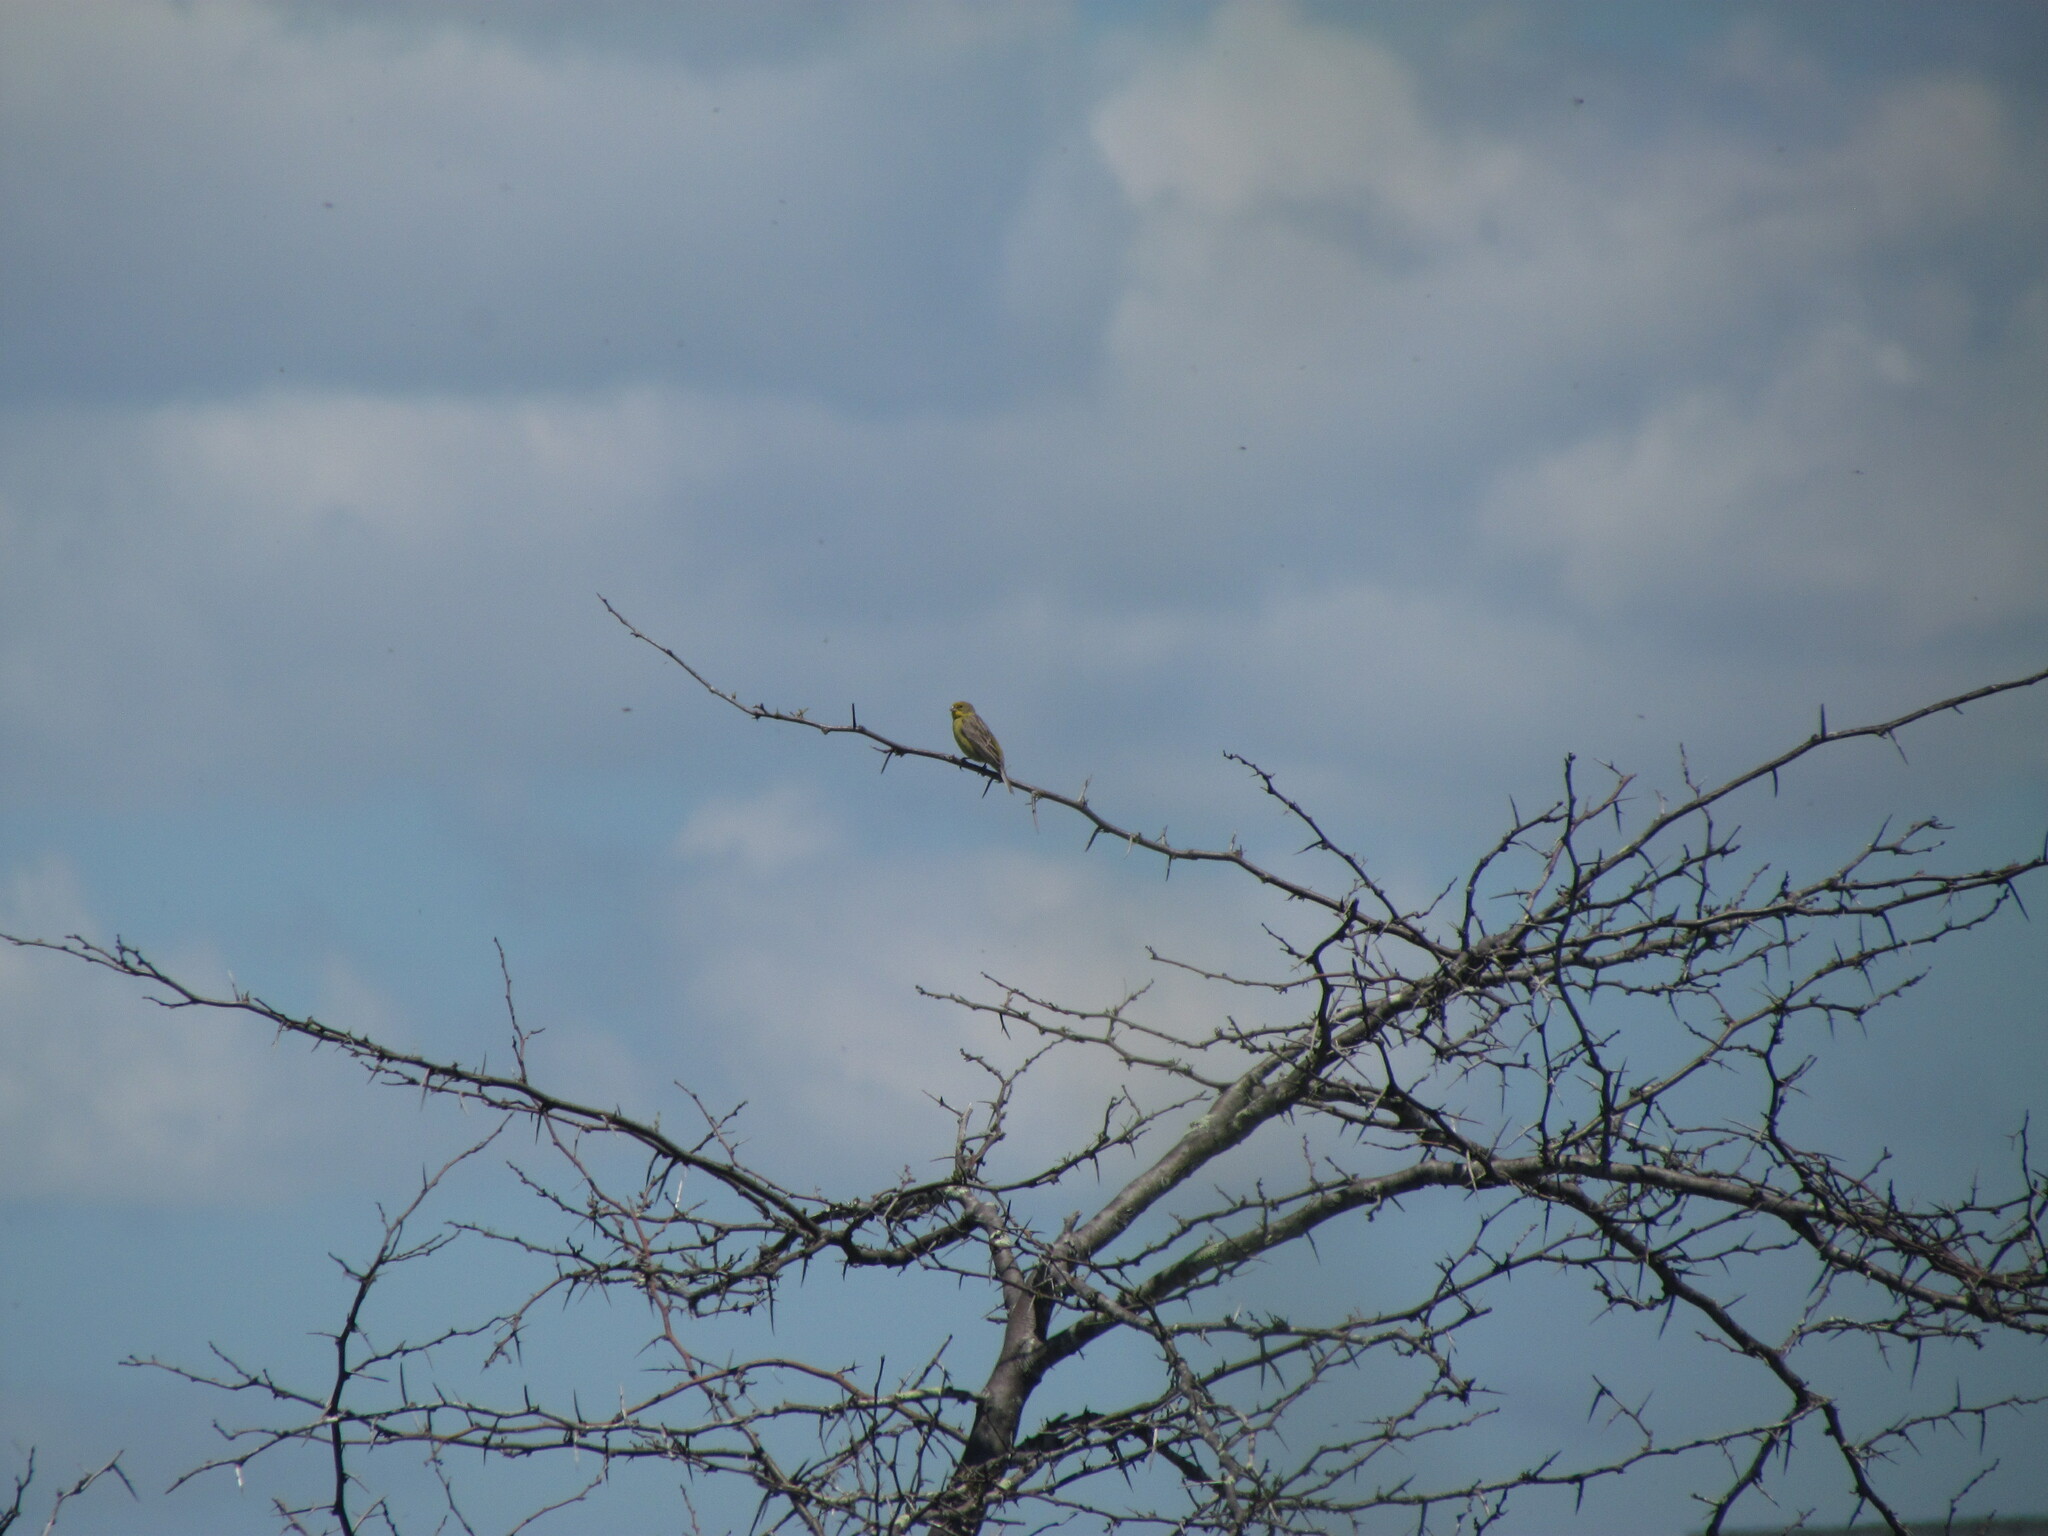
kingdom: Animalia
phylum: Chordata
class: Aves
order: Passeriformes
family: Thraupidae
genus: Sicalis
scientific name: Sicalis luteola
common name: Grassland yellow-finch
